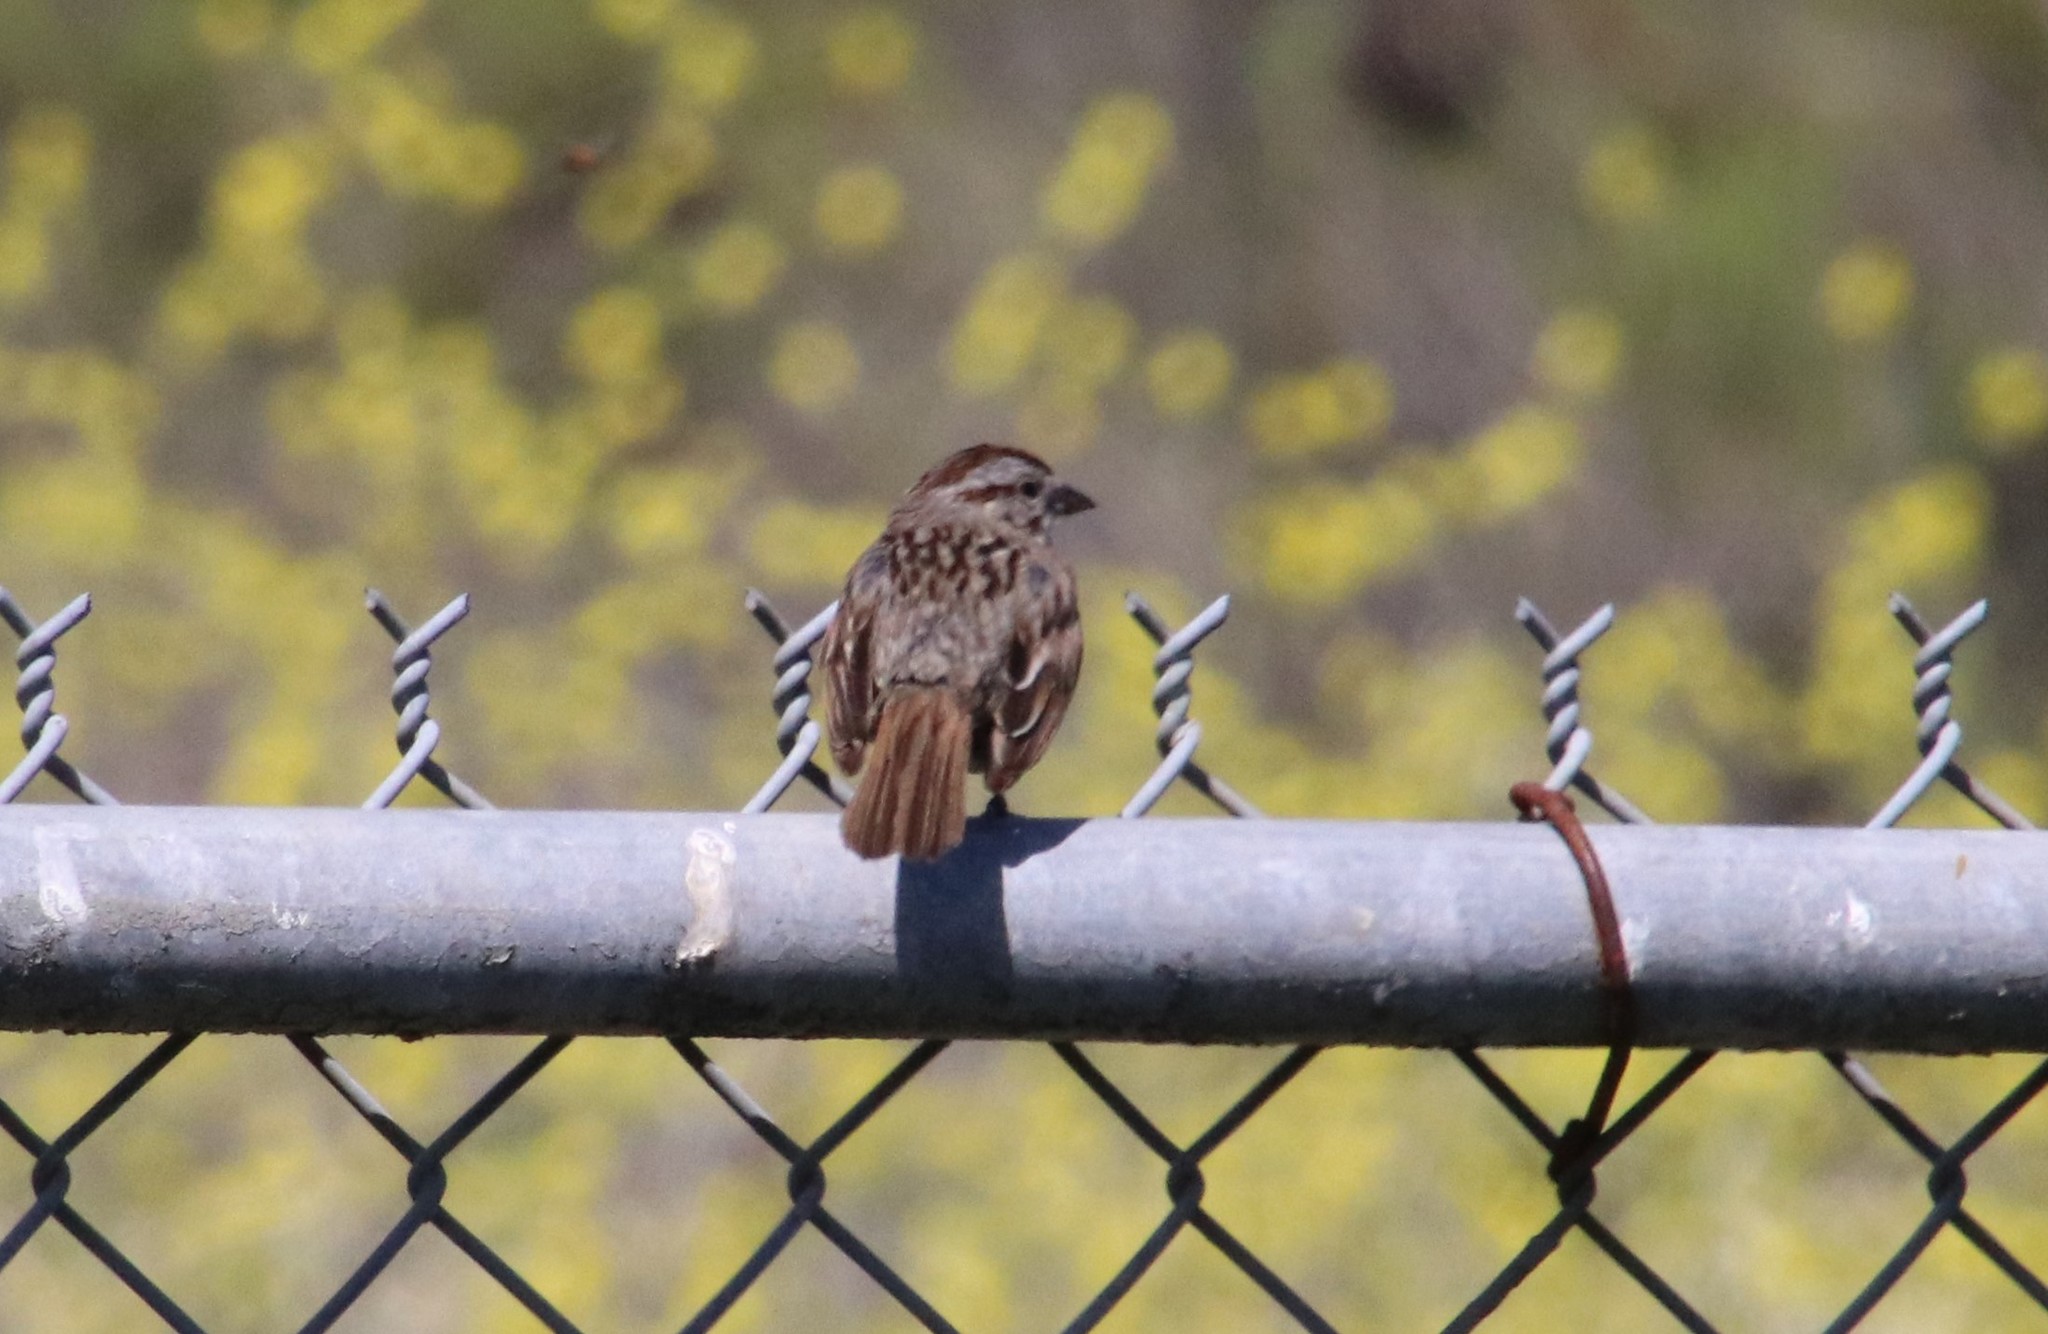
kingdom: Animalia
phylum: Chordata
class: Aves
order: Passeriformes
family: Passerellidae
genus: Melospiza
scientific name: Melospiza melodia
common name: Song sparrow
